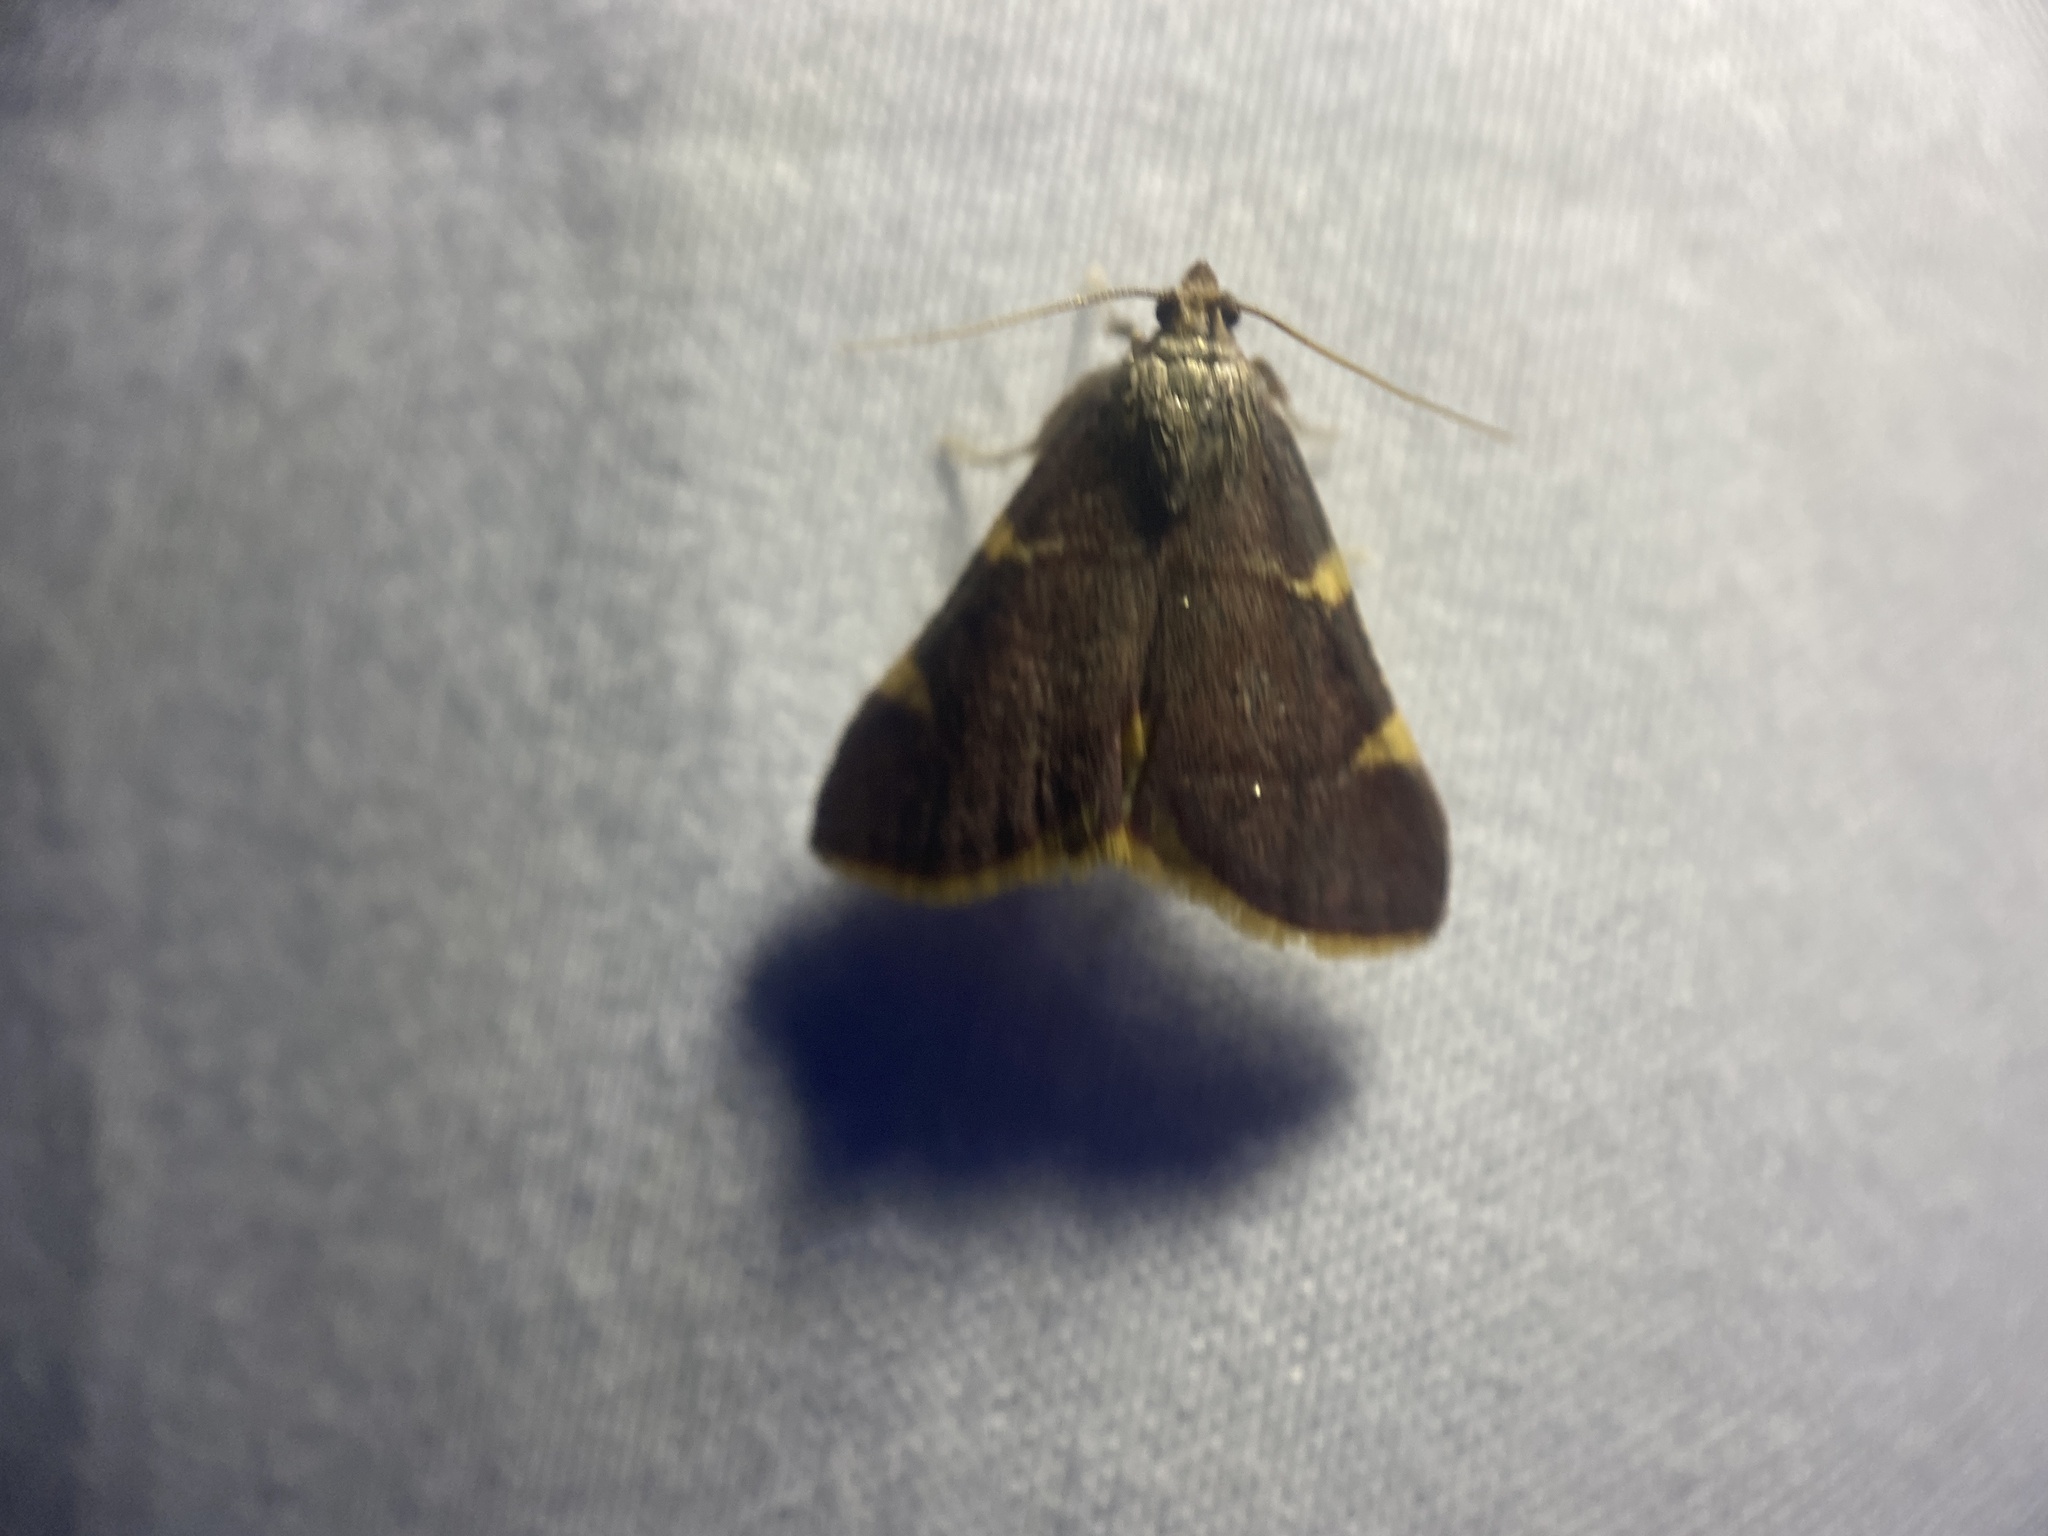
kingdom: Animalia
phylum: Arthropoda
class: Insecta
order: Lepidoptera
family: Pyralidae
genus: Hypsopygia
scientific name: Hypsopygia olinalis
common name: Yellow-fringed dolichomia moth
